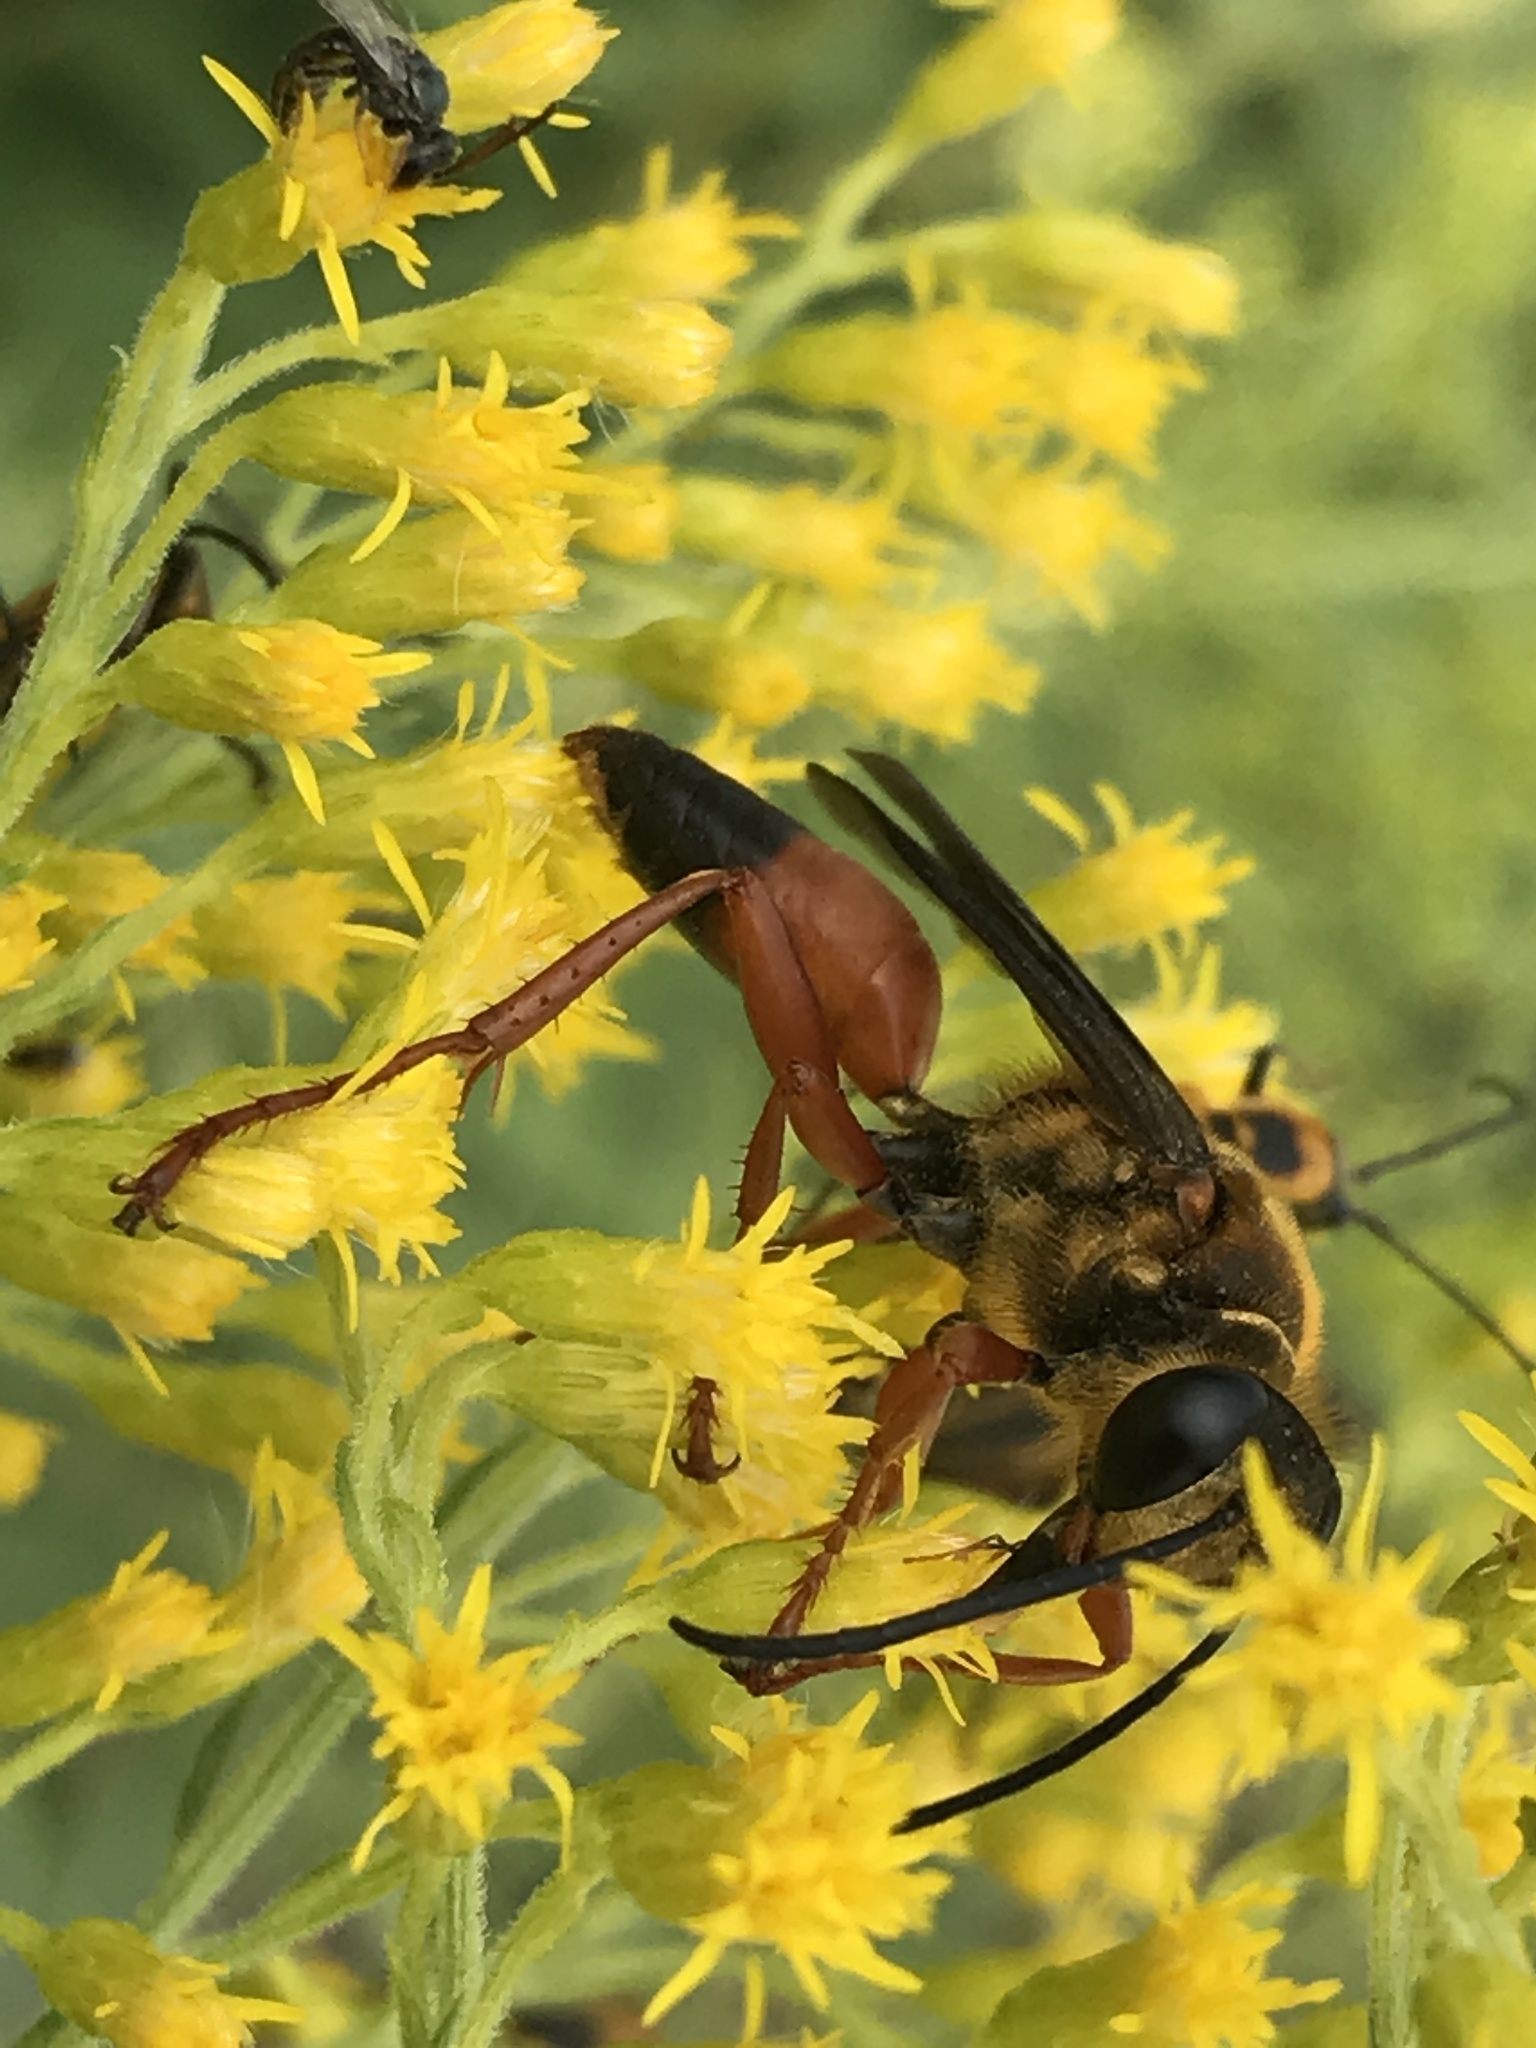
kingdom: Animalia
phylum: Arthropoda
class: Insecta
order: Hymenoptera
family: Sphecidae
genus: Sphex
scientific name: Sphex ichneumoneus
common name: Great golden digger wasp
